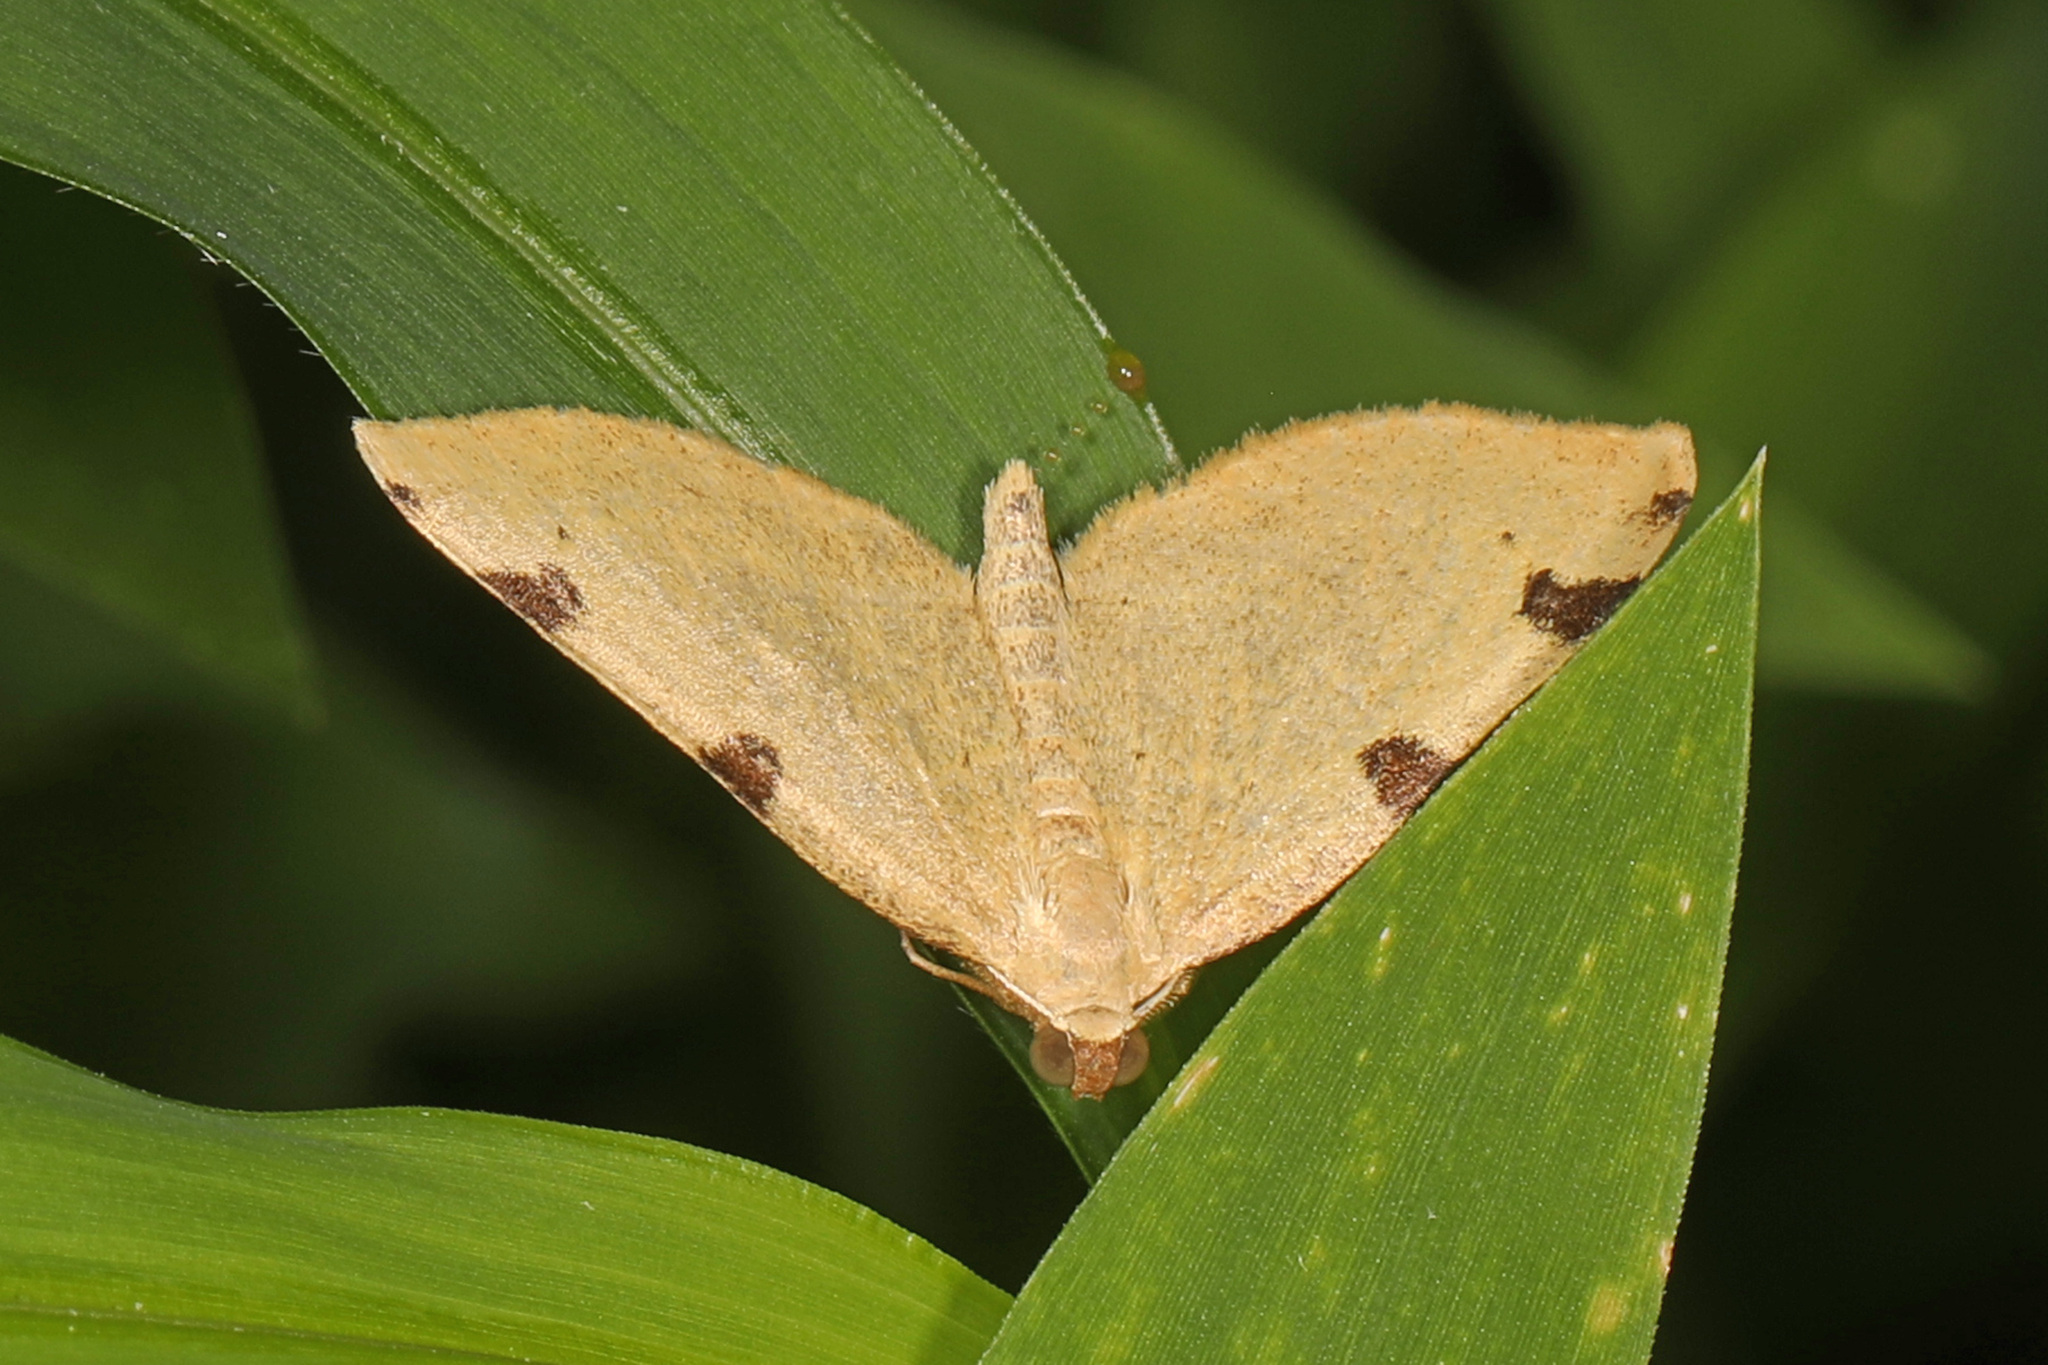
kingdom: Animalia
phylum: Arthropoda
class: Insecta
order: Lepidoptera
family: Geometridae
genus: Heterophleps
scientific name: Heterophleps triguttaria
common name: Three-spotted fillip
